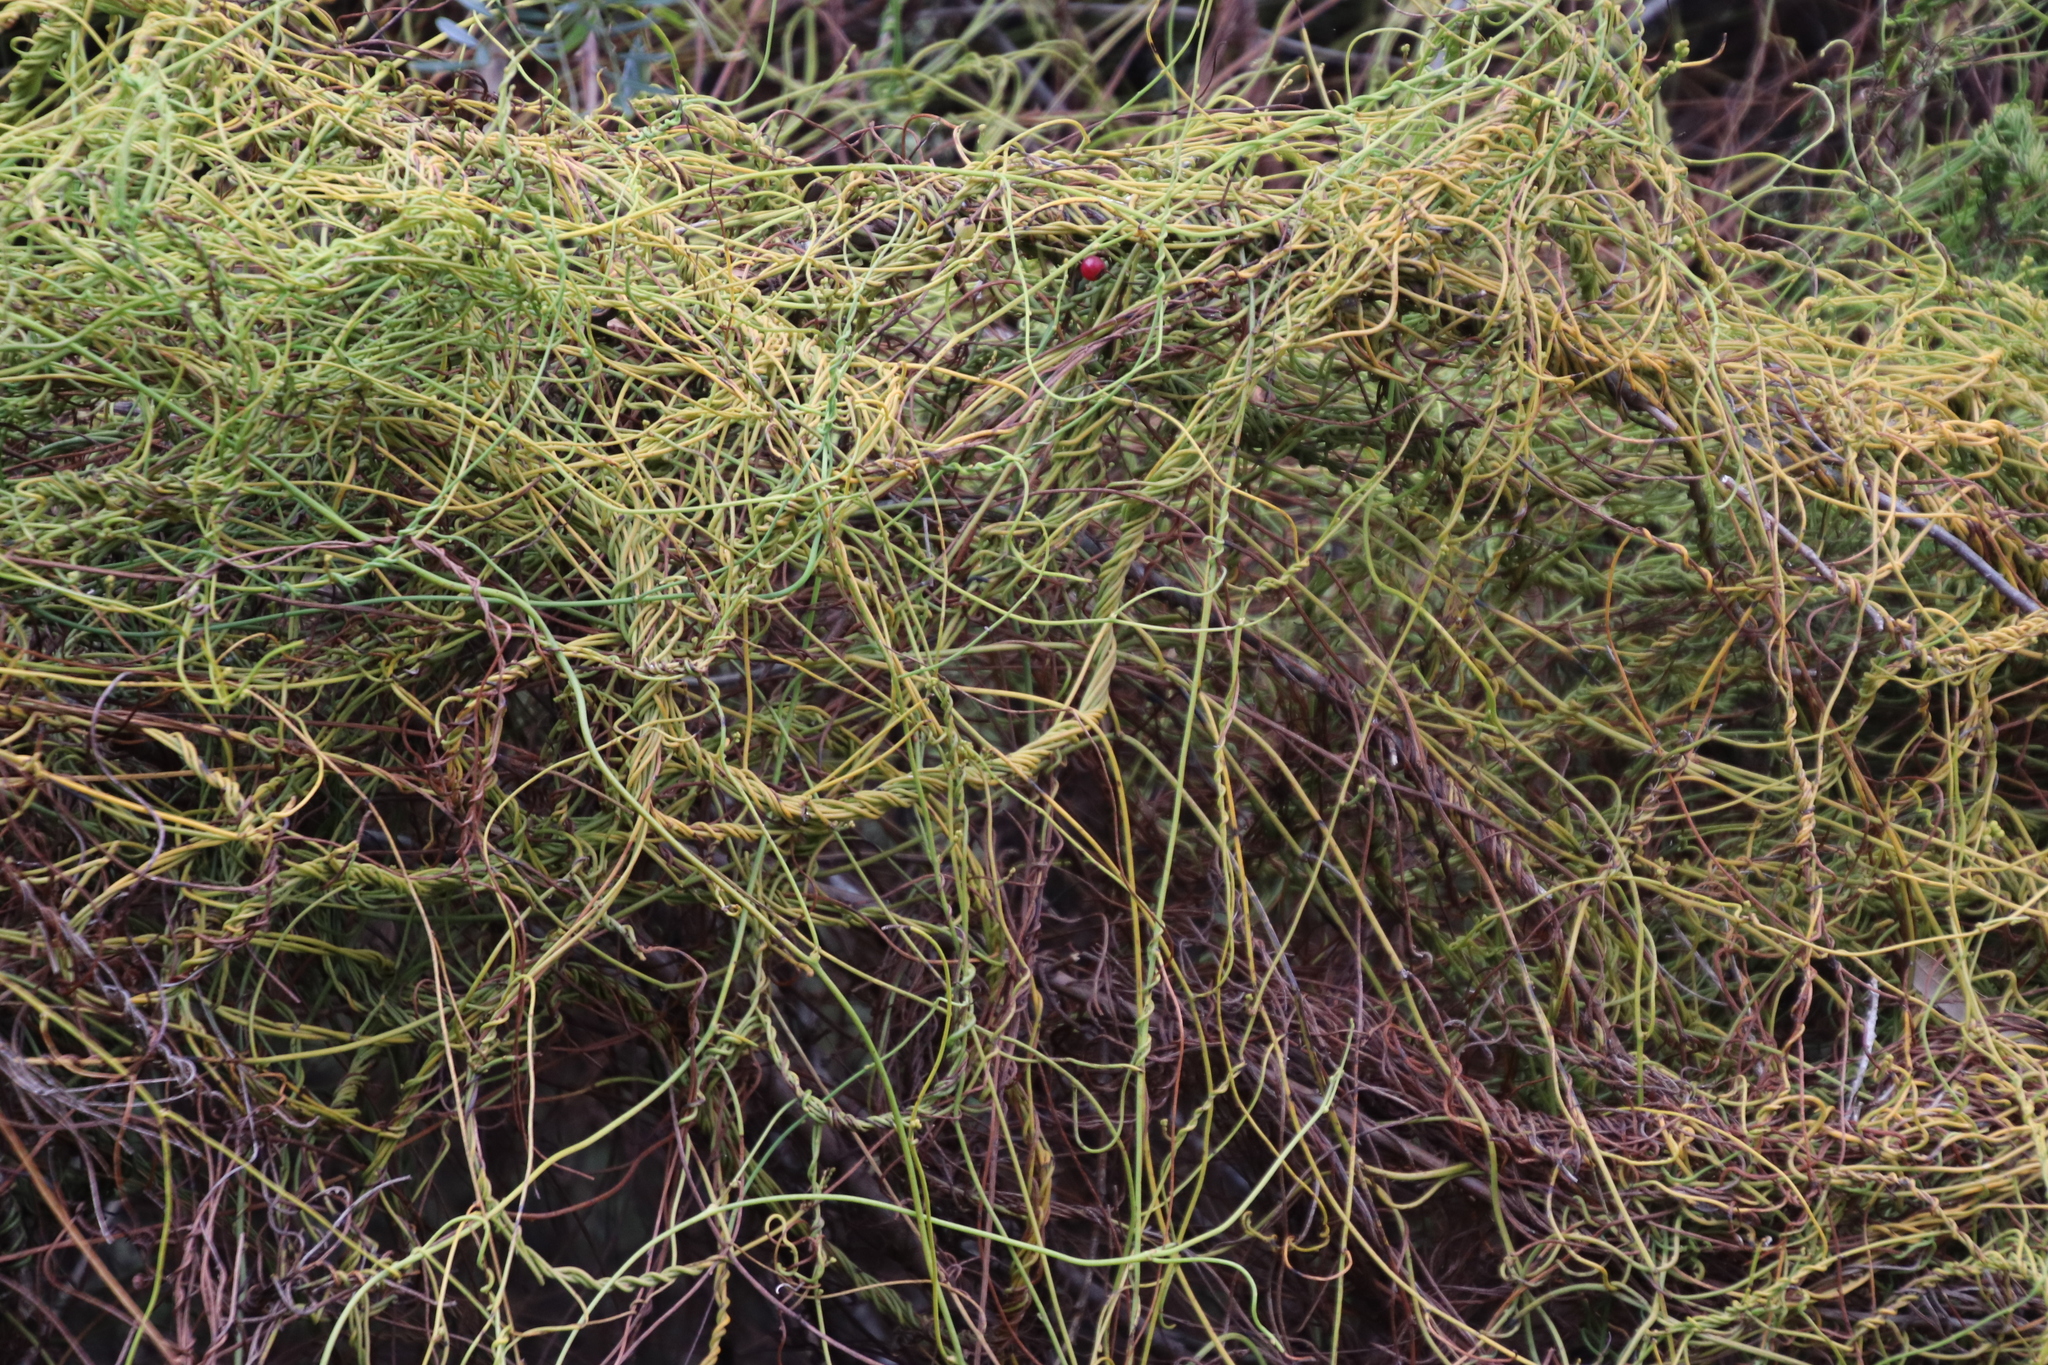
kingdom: Plantae
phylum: Tracheophyta
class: Magnoliopsida
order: Laurales
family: Lauraceae
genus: Cassytha
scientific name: Cassytha ciliolata
